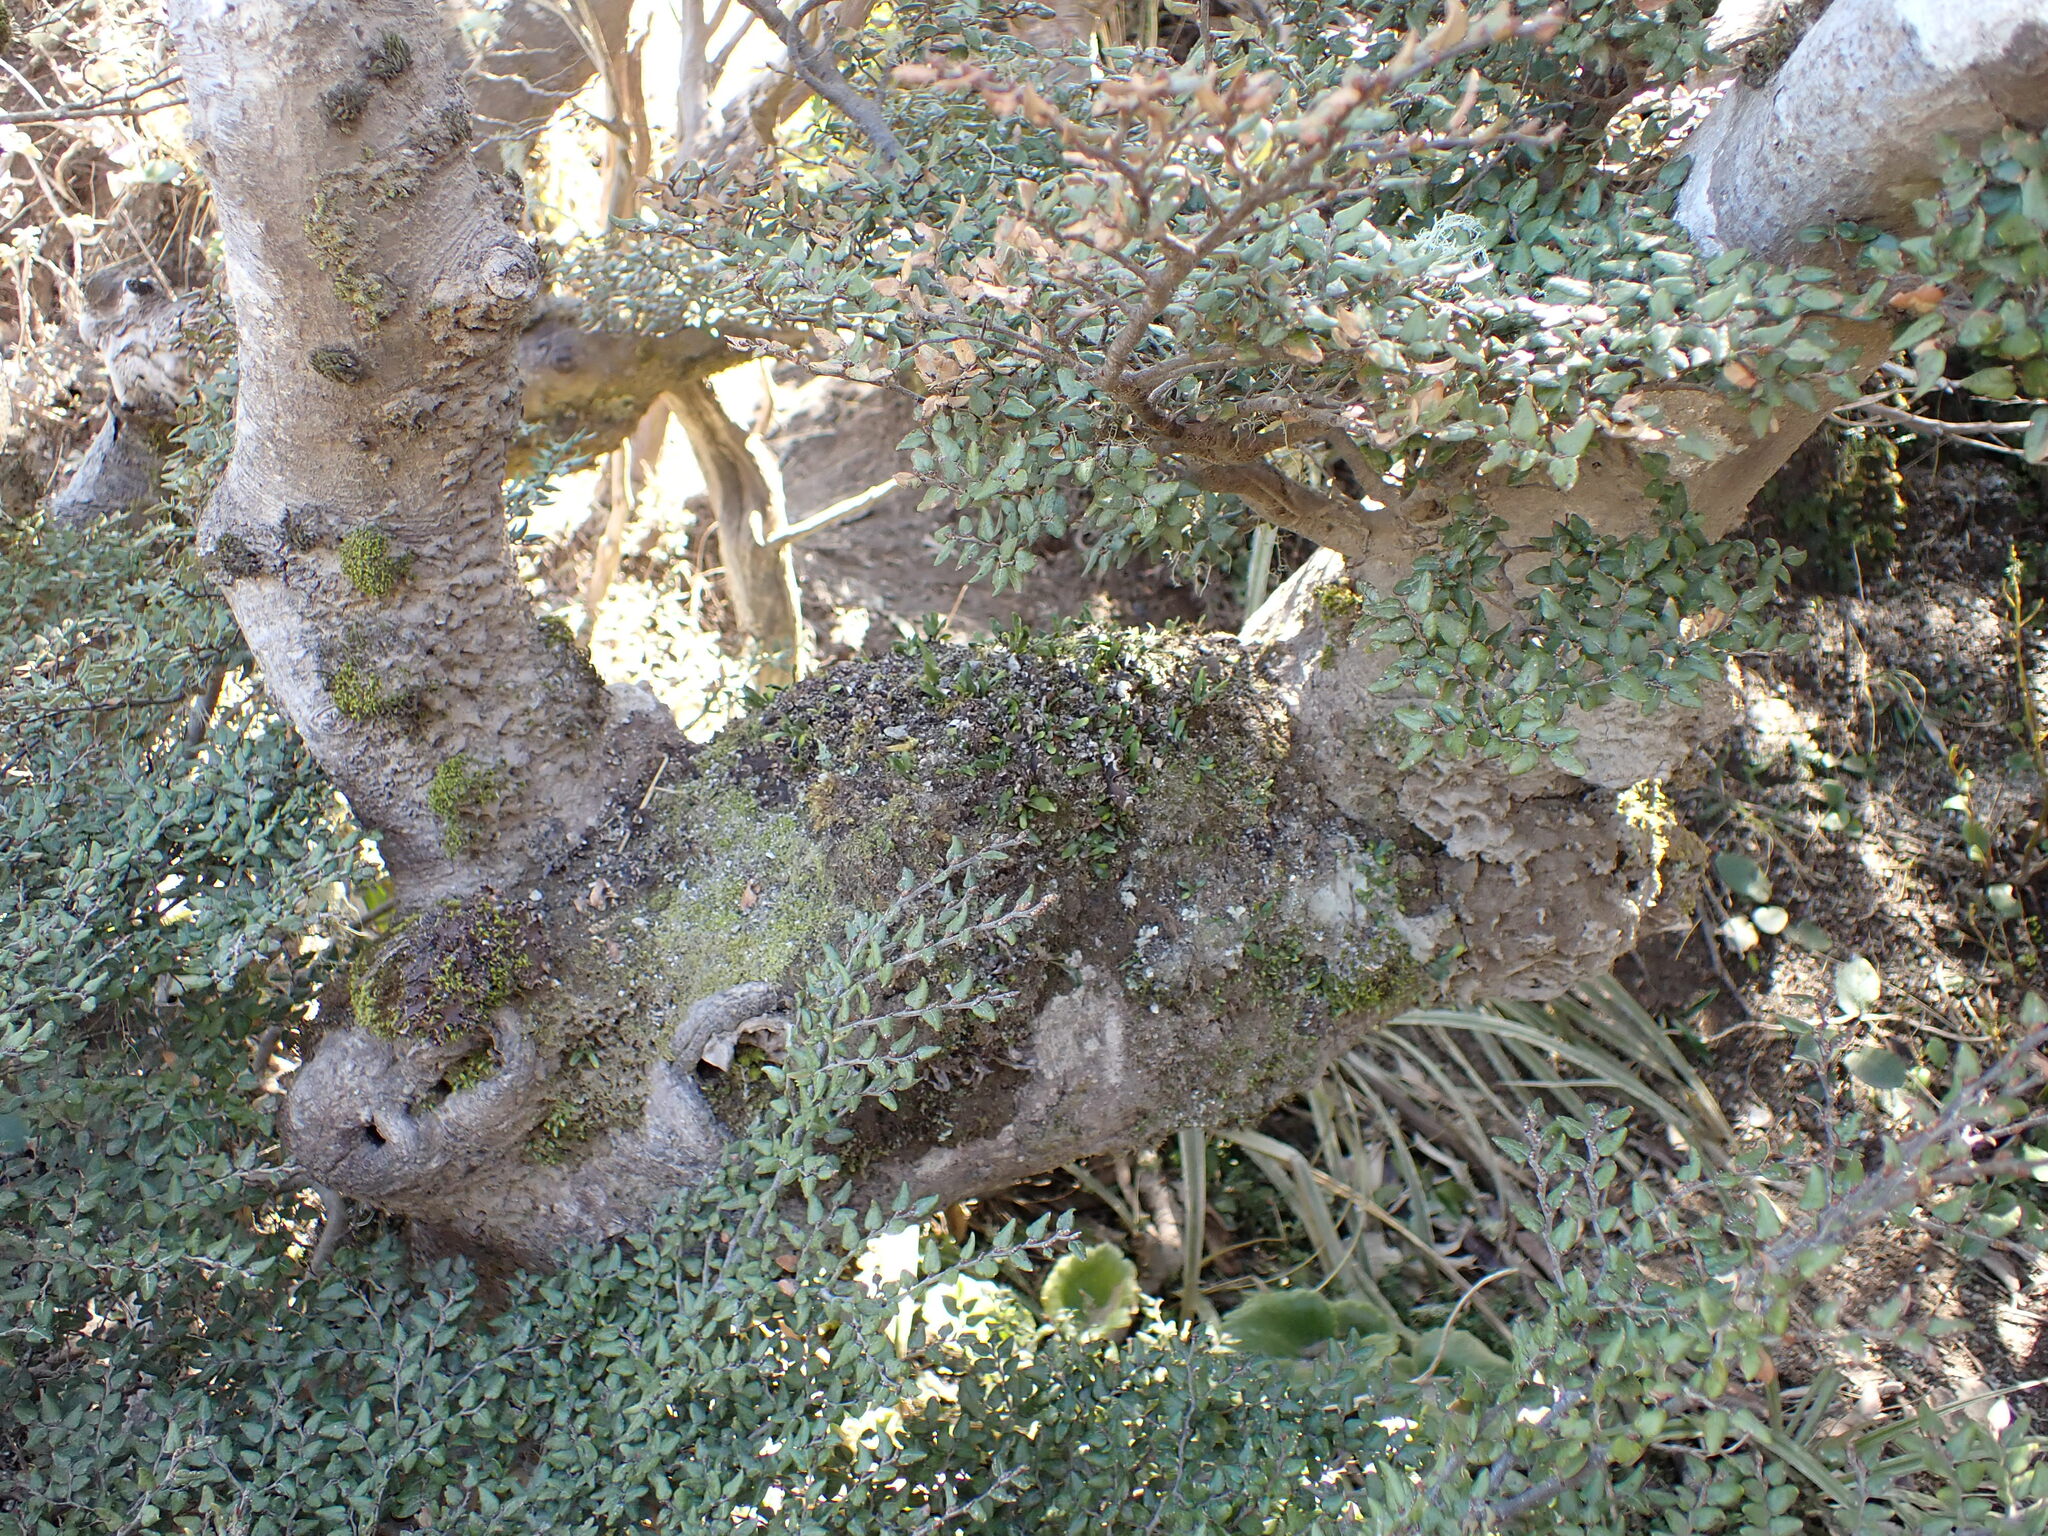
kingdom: Plantae
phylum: Tracheophyta
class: Polypodiopsida
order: Polypodiales
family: Polypodiaceae
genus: Notogrammitis
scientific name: Notogrammitis crassior
